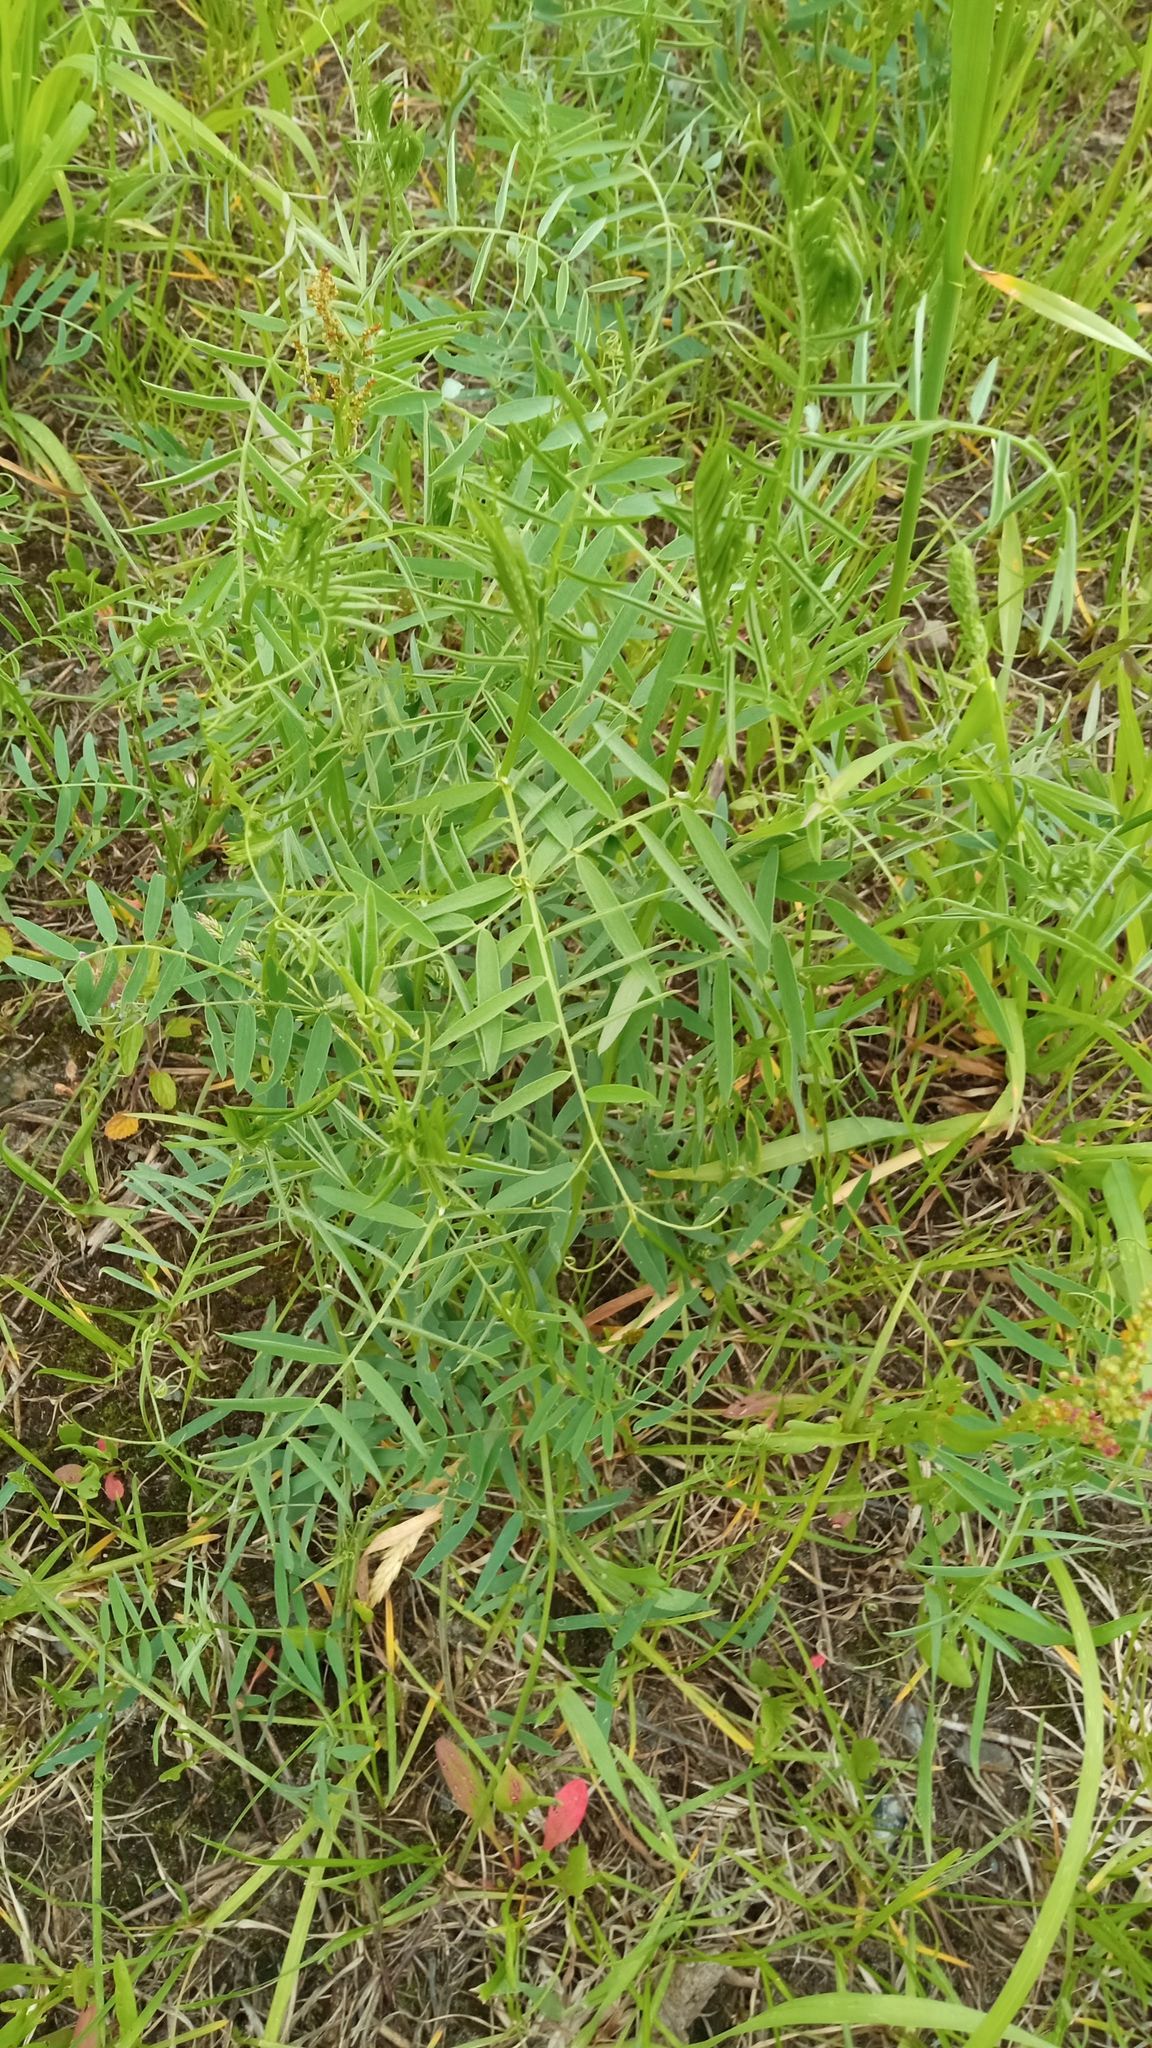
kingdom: Plantae
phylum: Tracheophyta
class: Magnoliopsida
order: Fabales
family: Fabaceae
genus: Vicia
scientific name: Vicia cracca
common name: Bird vetch
